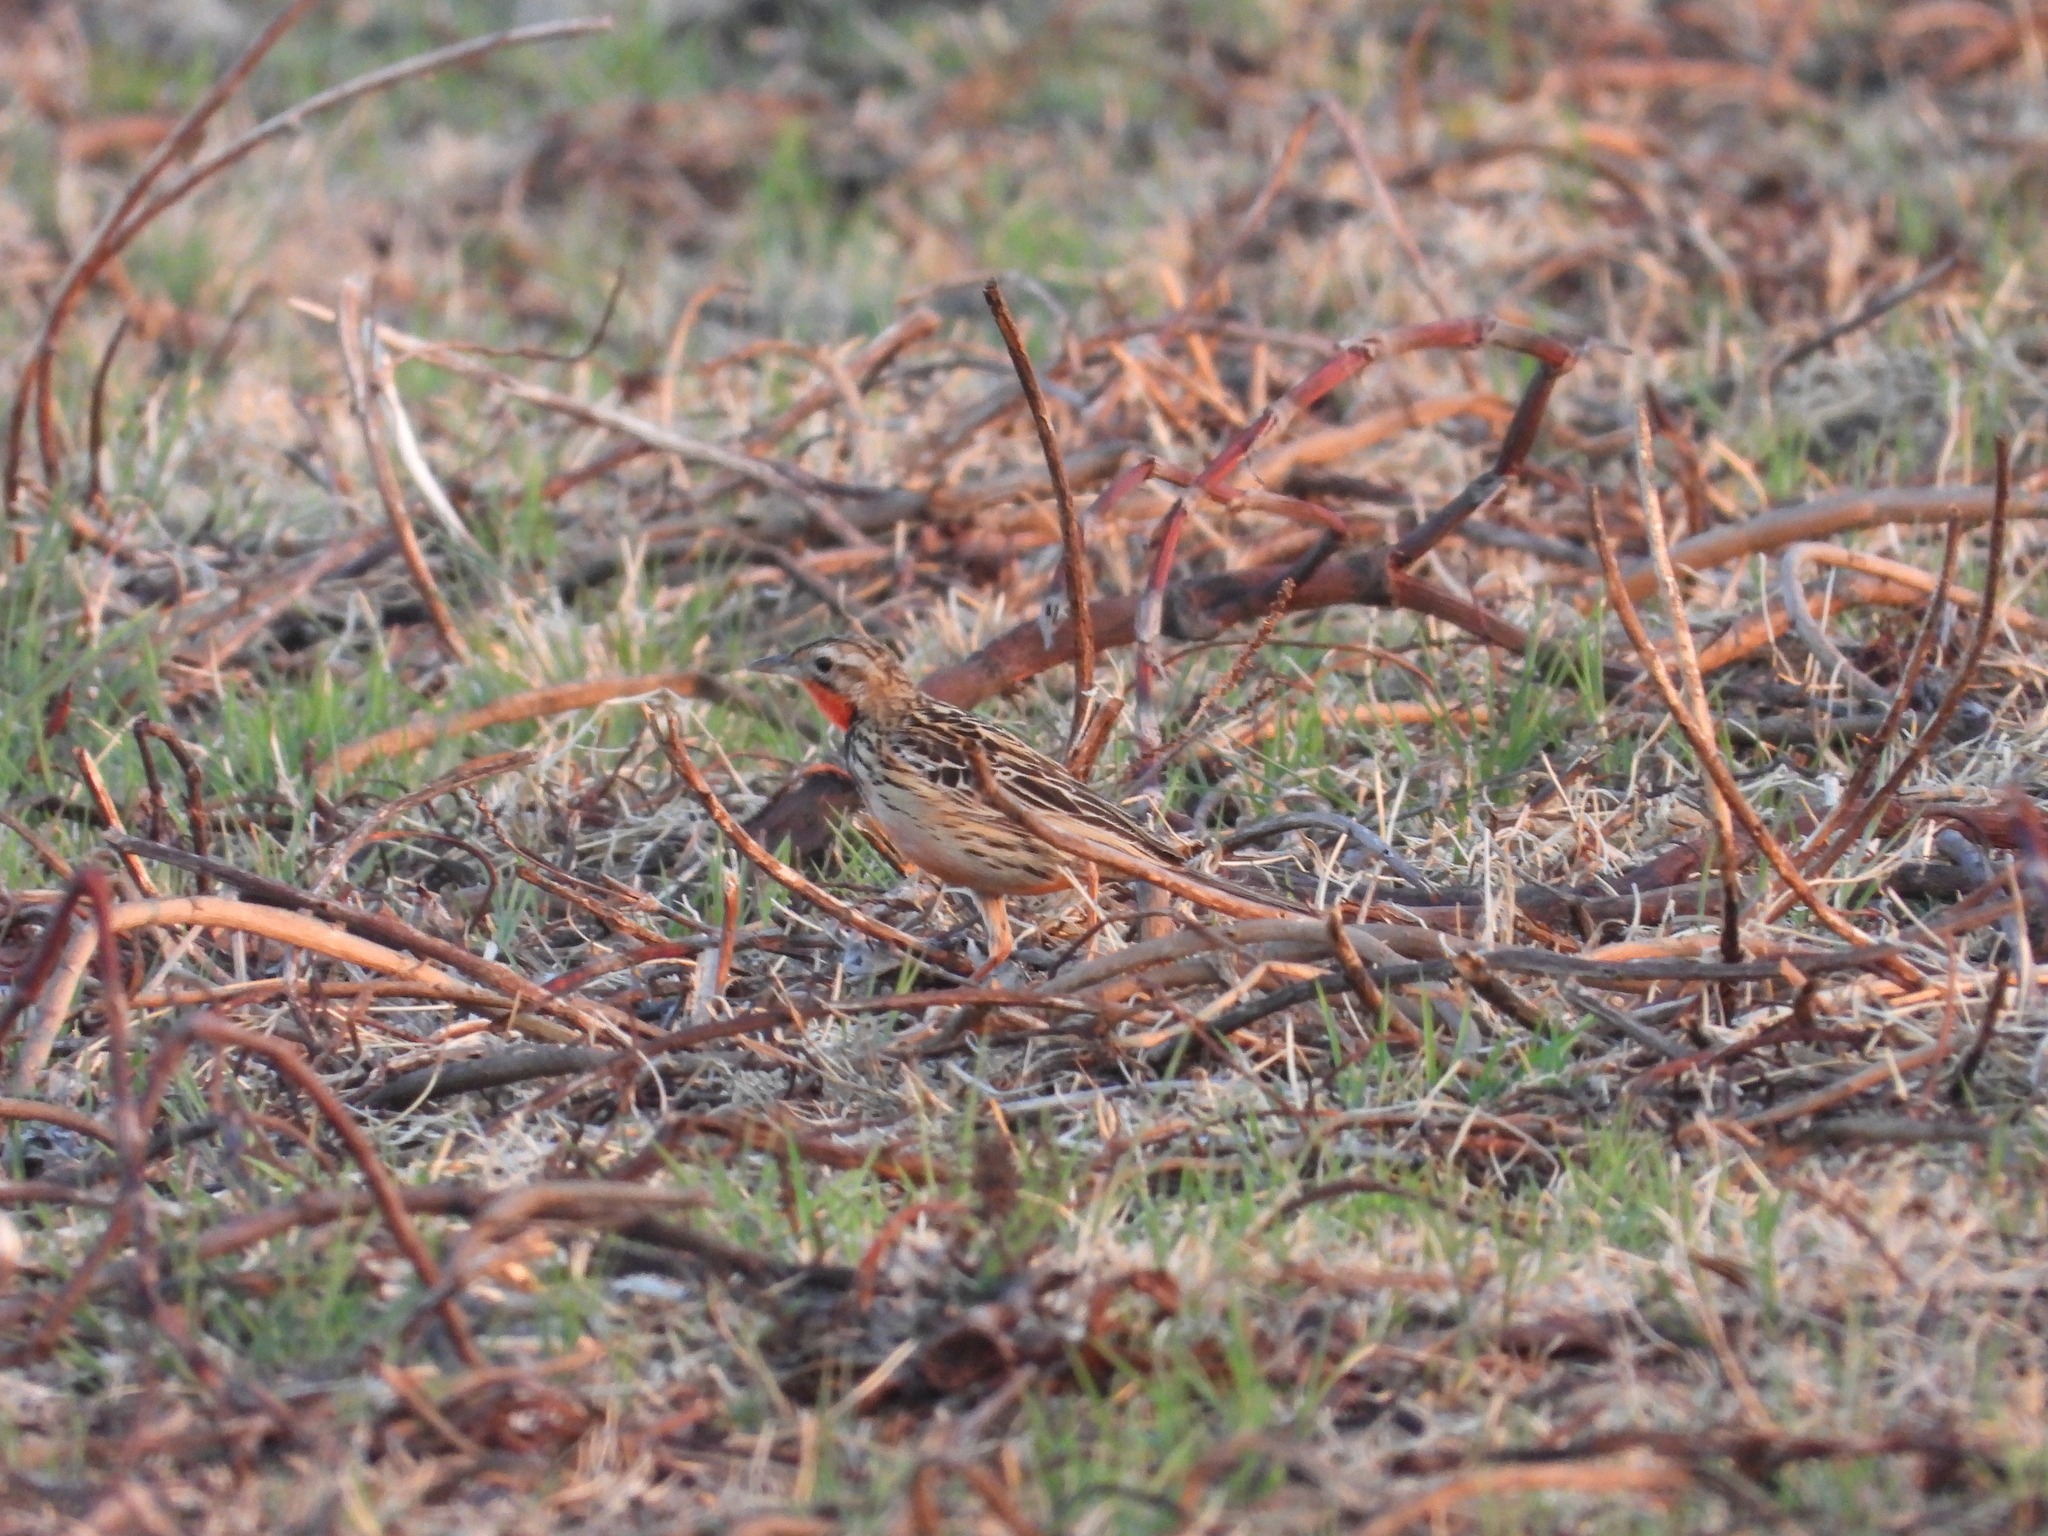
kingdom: Animalia
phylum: Chordata
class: Aves
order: Passeriformes
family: Motacillidae
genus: Macronyx
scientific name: Macronyx ameliae
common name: Rosy-throated longclaw
